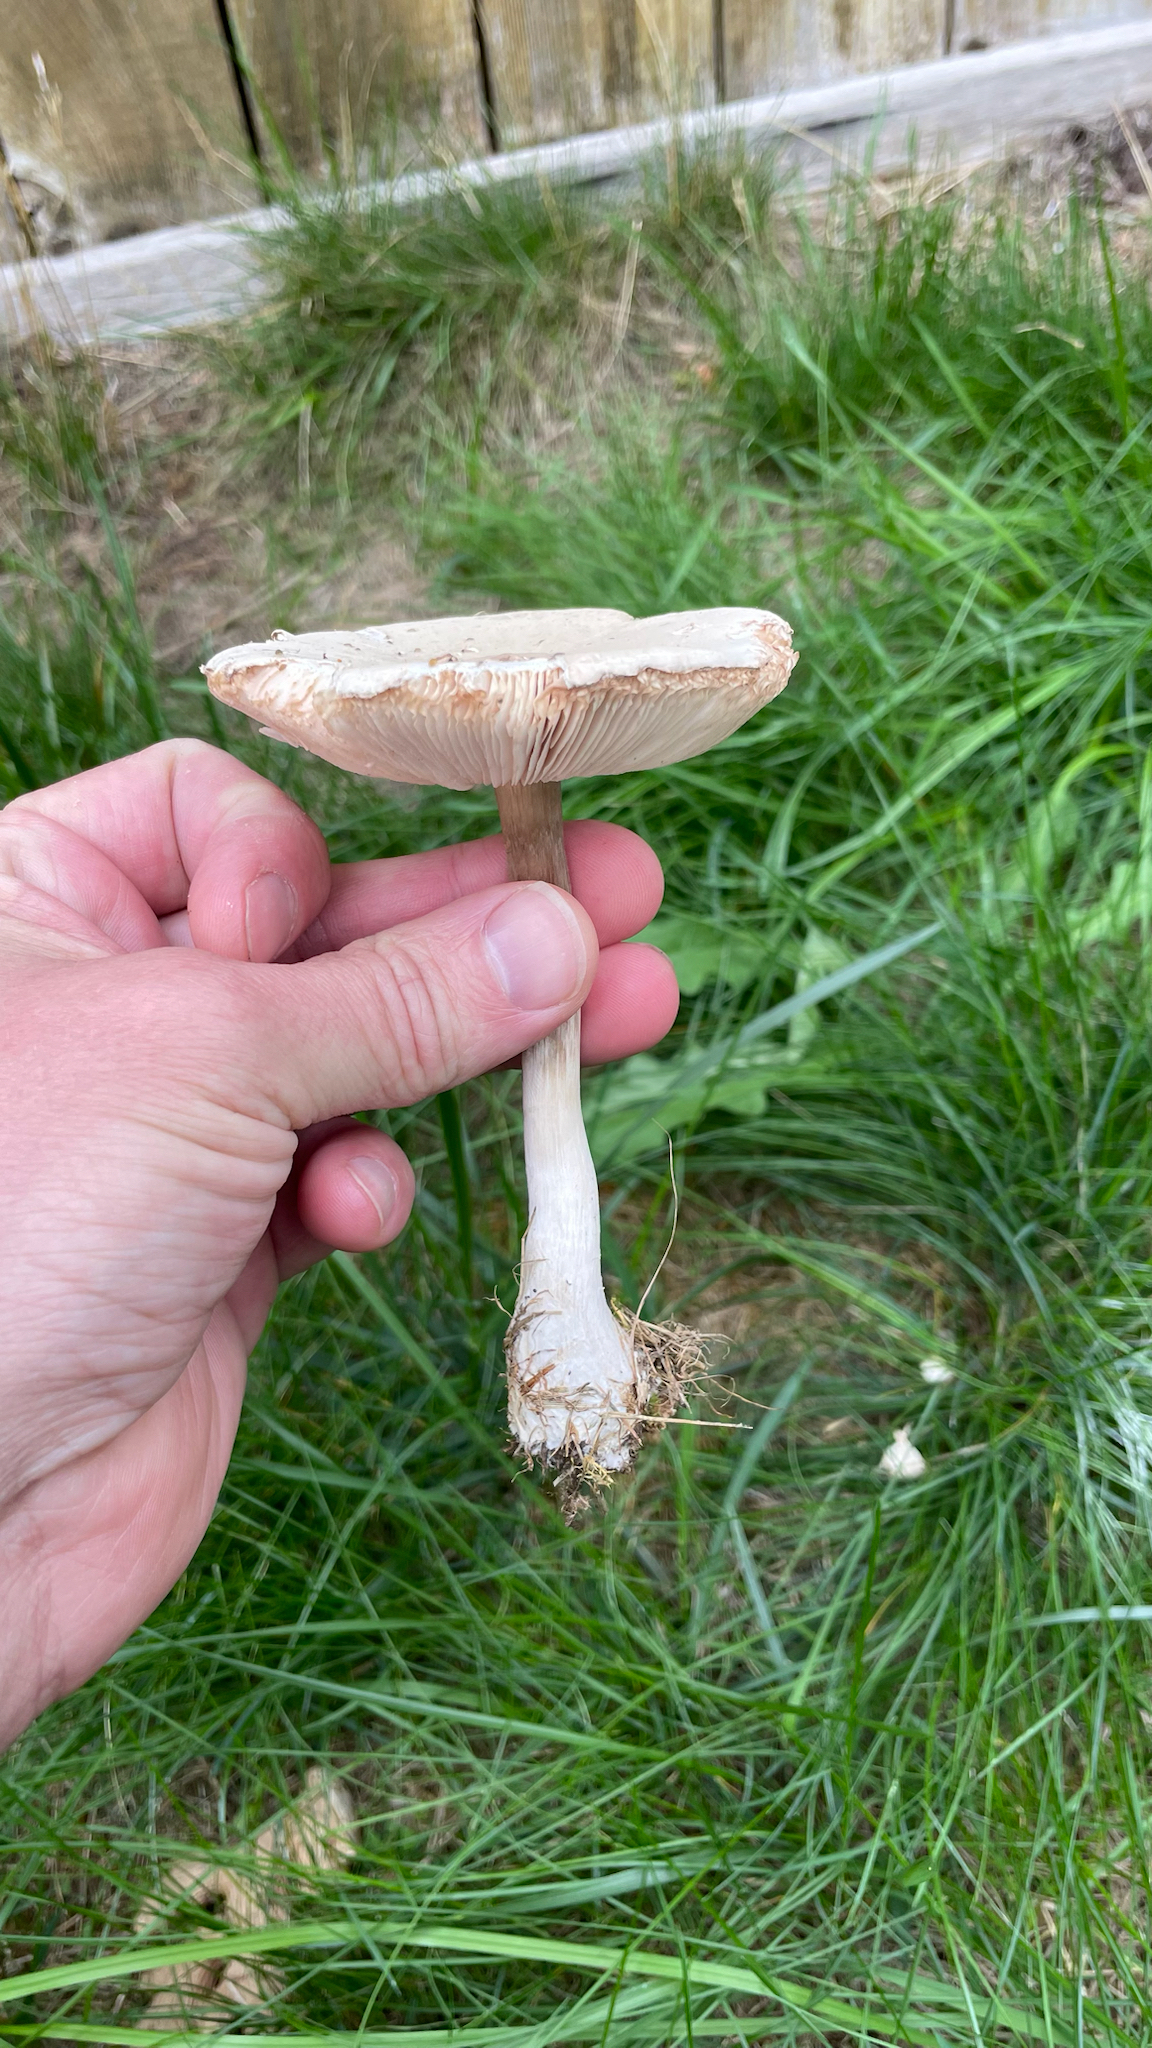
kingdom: Fungi
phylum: Basidiomycota
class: Agaricomycetes
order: Agaricales
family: Agaricaceae
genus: Leucoagaricus
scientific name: Leucoagaricus leucothites
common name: White dapperling
